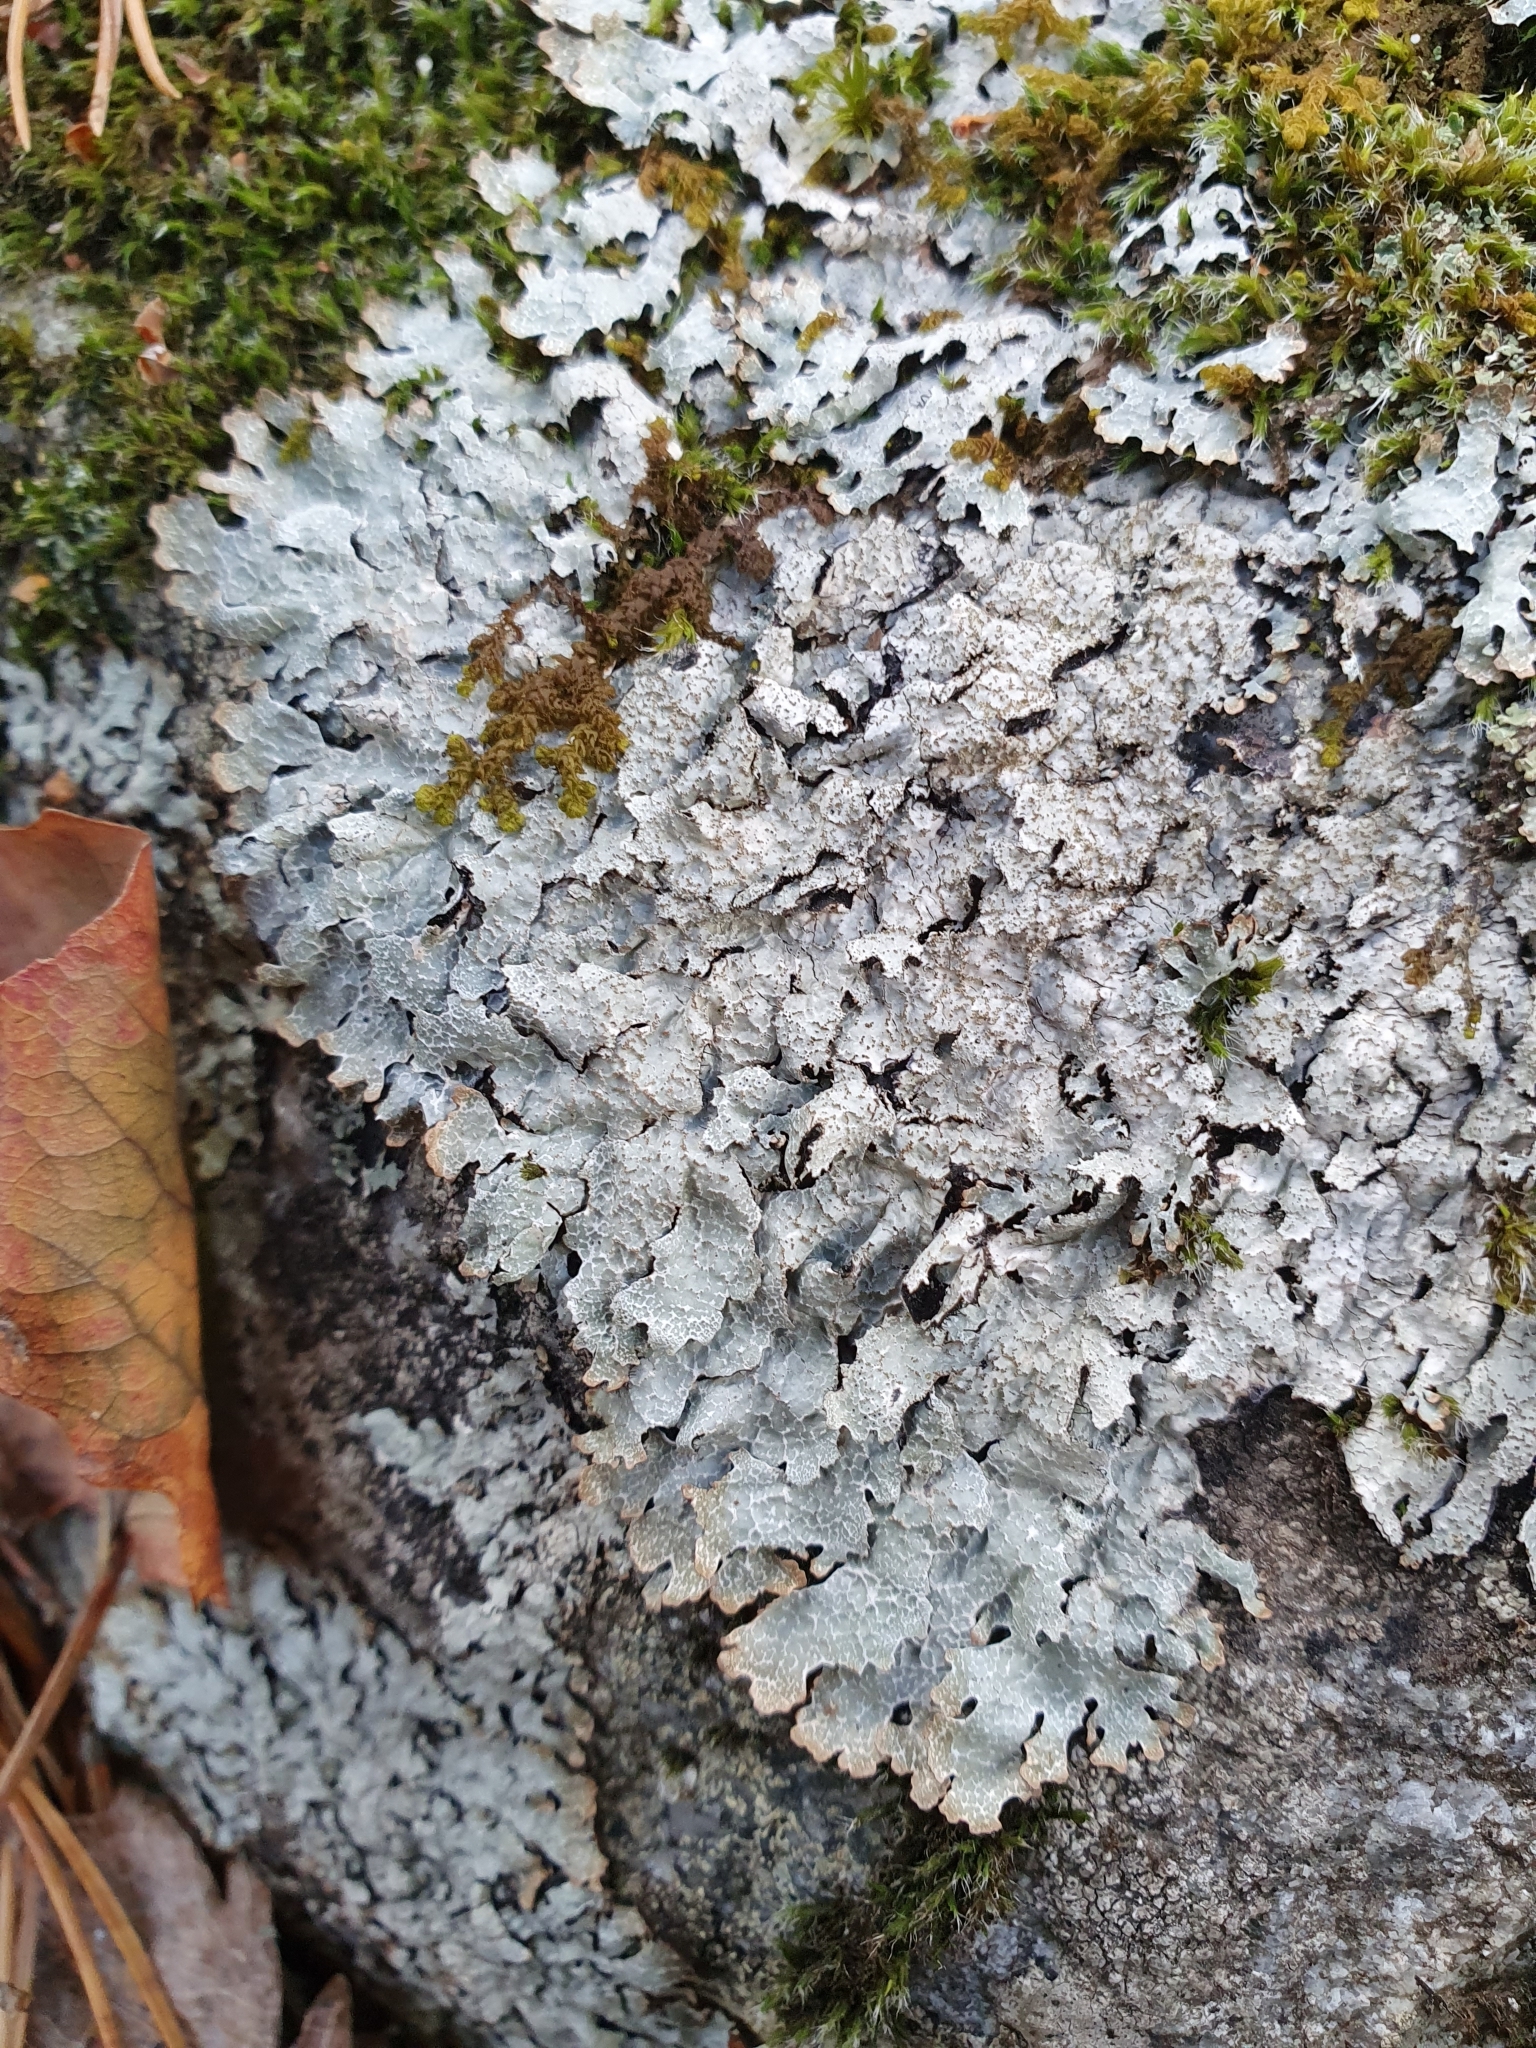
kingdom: Fungi
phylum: Ascomycota
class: Lecanoromycetes
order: Lecanorales
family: Parmeliaceae
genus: Parmelia
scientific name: Parmelia sulcata
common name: Netted shield lichen
